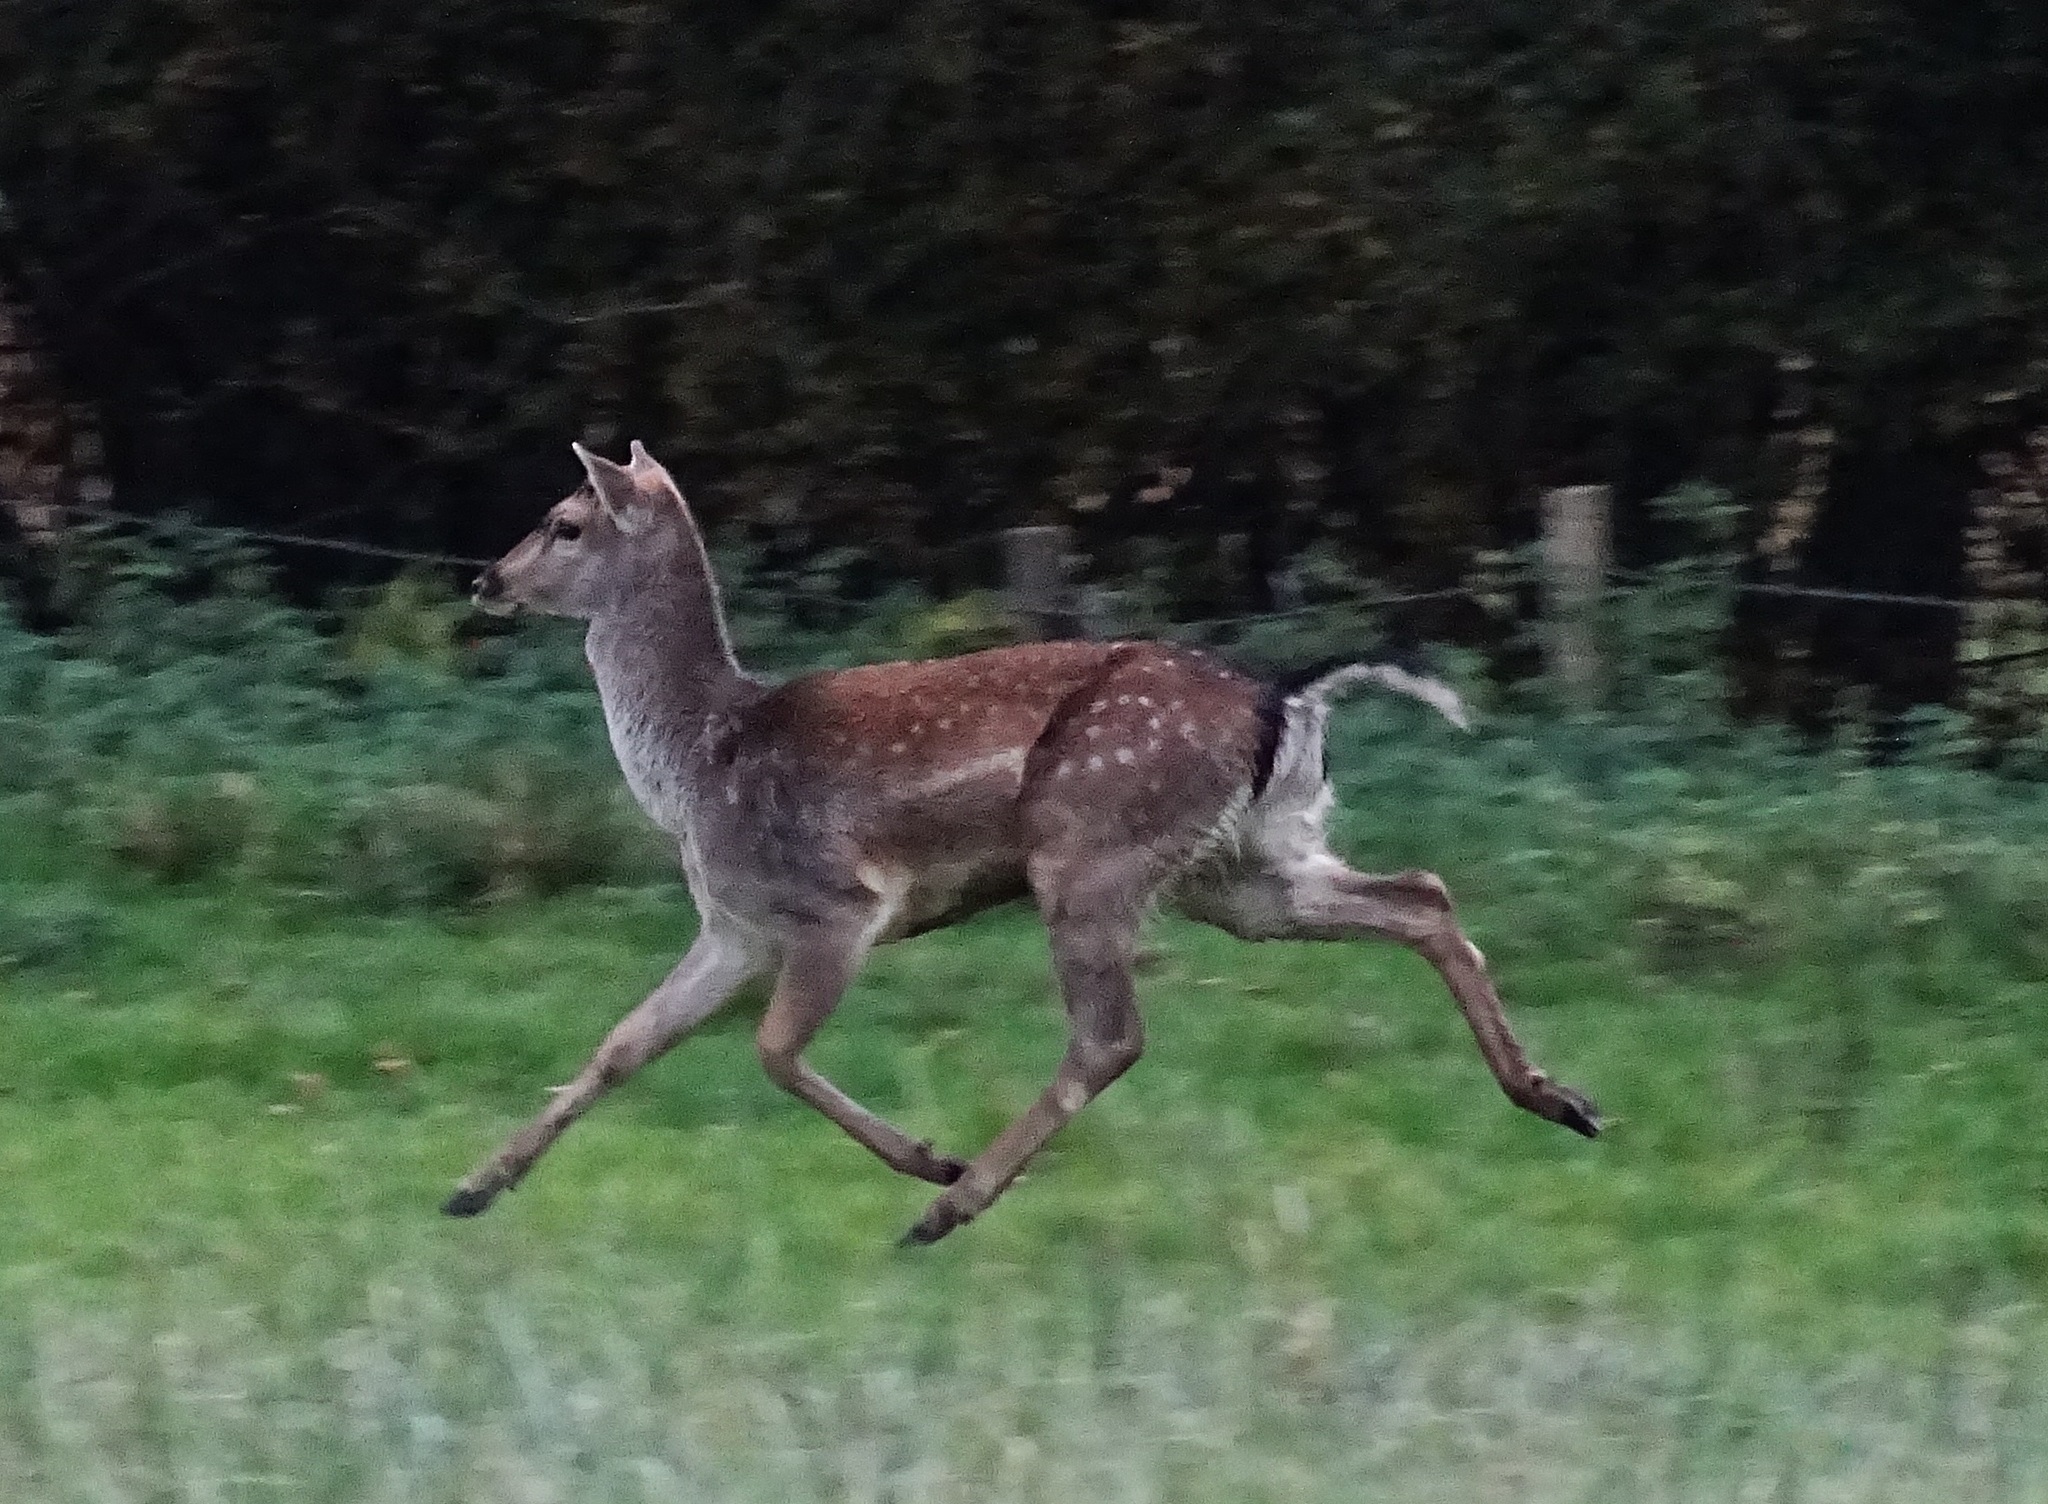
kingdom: Animalia
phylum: Chordata
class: Mammalia
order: Artiodactyla
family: Cervidae
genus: Dama
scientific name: Dama dama
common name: Fallow deer
